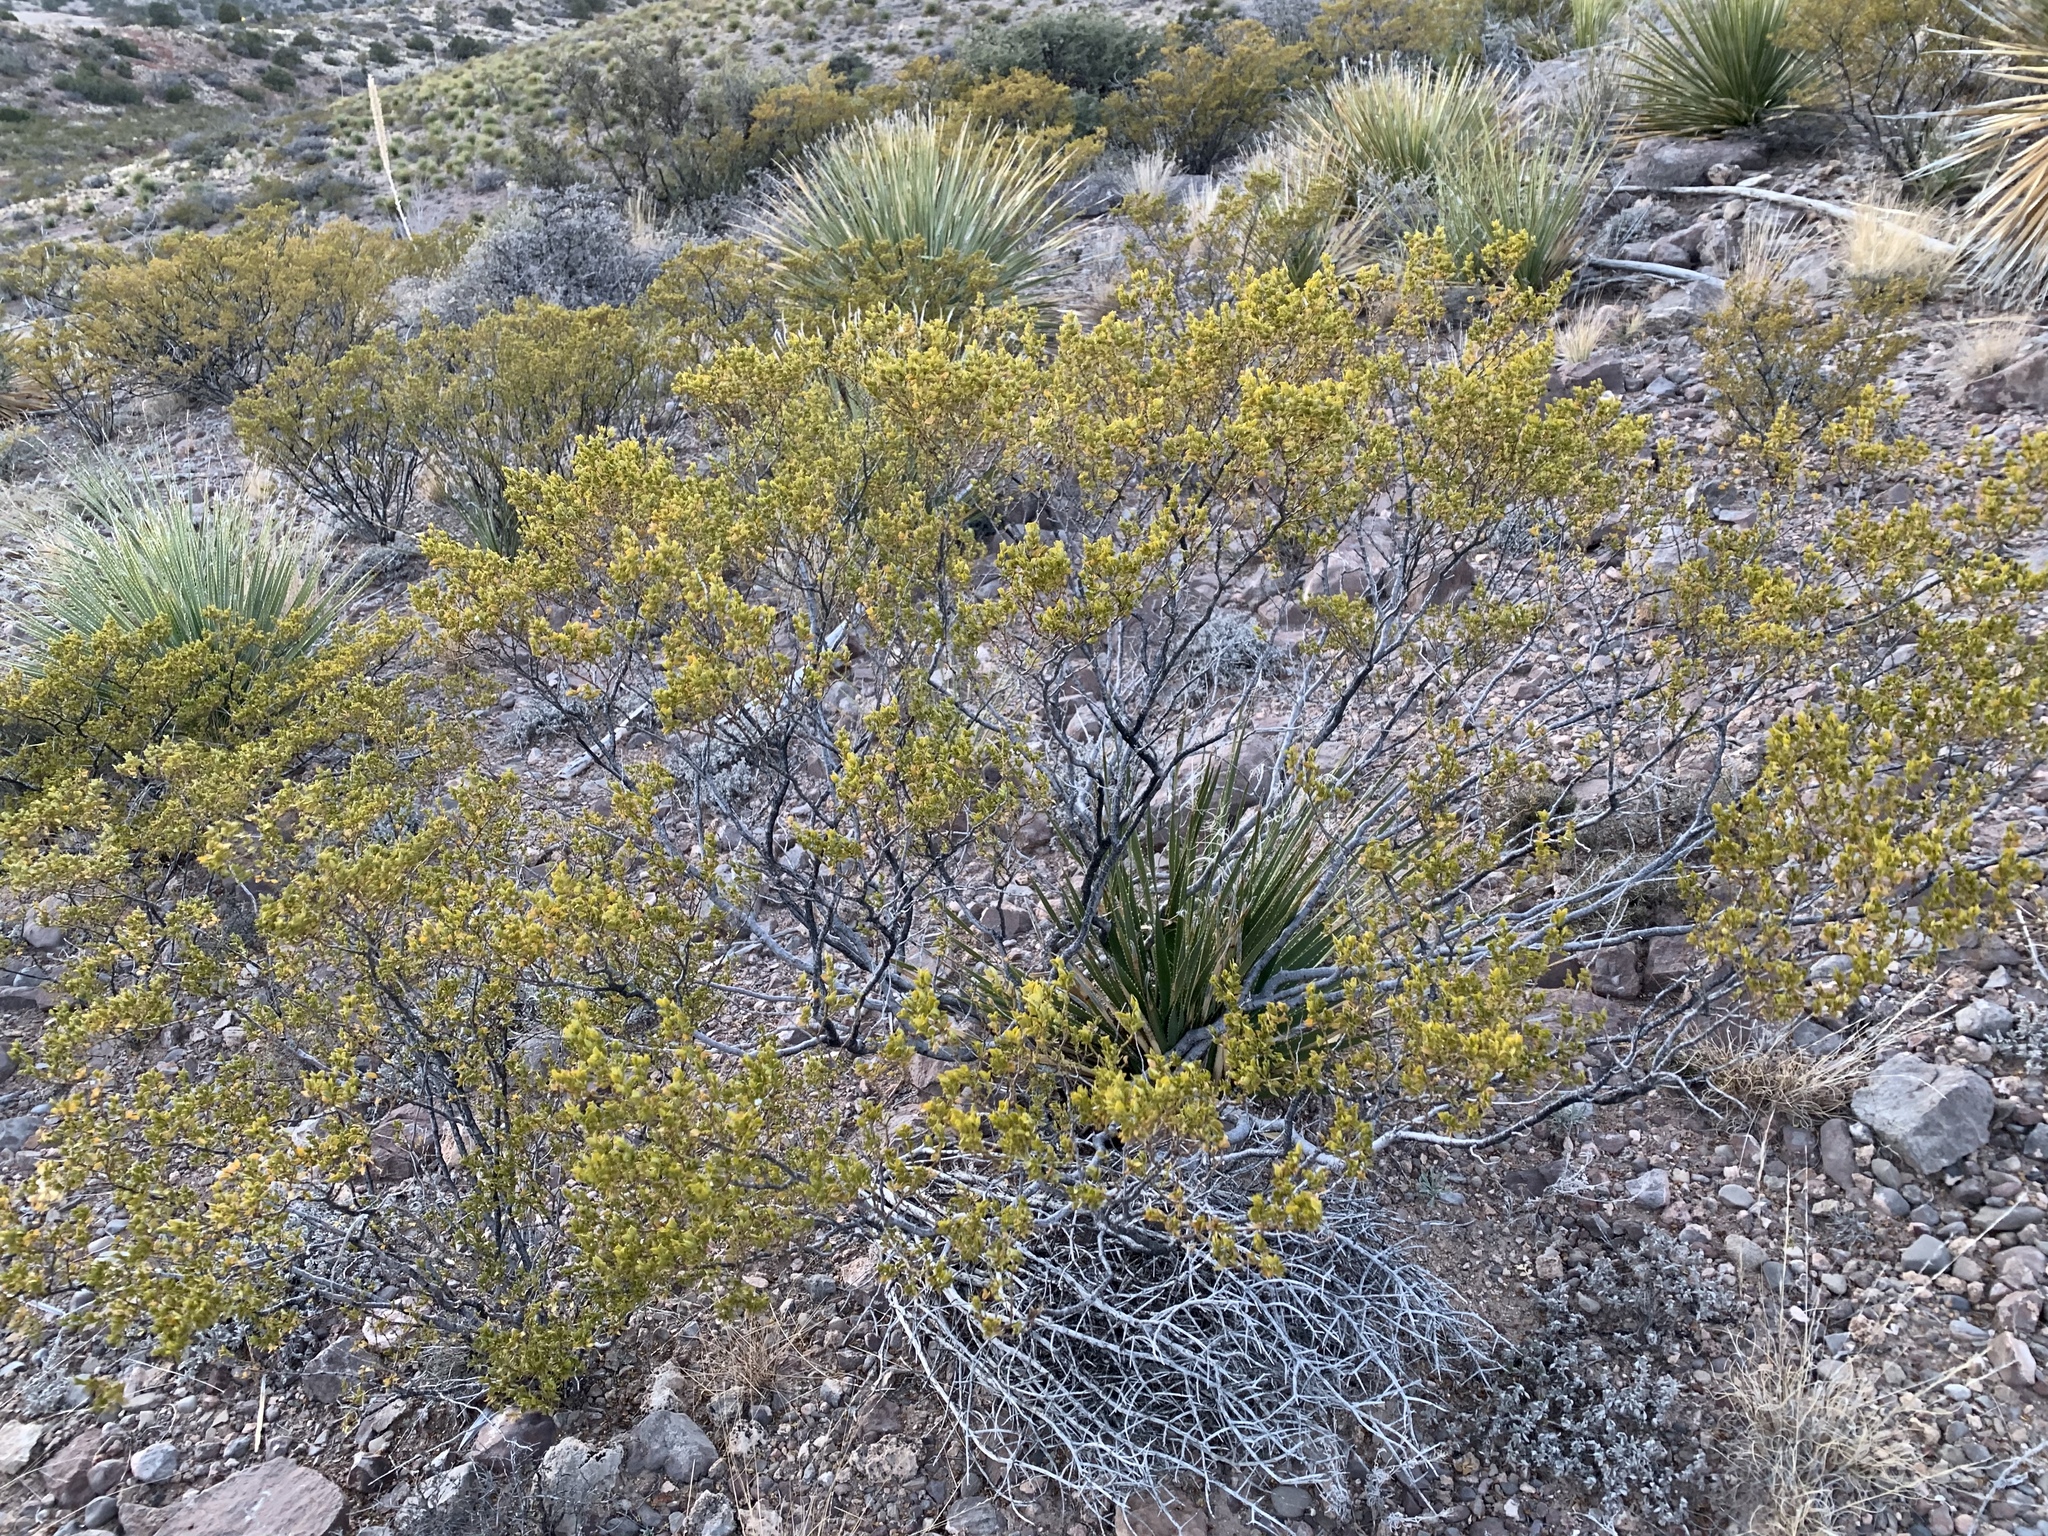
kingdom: Plantae
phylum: Tracheophyta
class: Magnoliopsida
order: Zygophyllales
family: Zygophyllaceae
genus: Larrea
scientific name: Larrea tridentata
